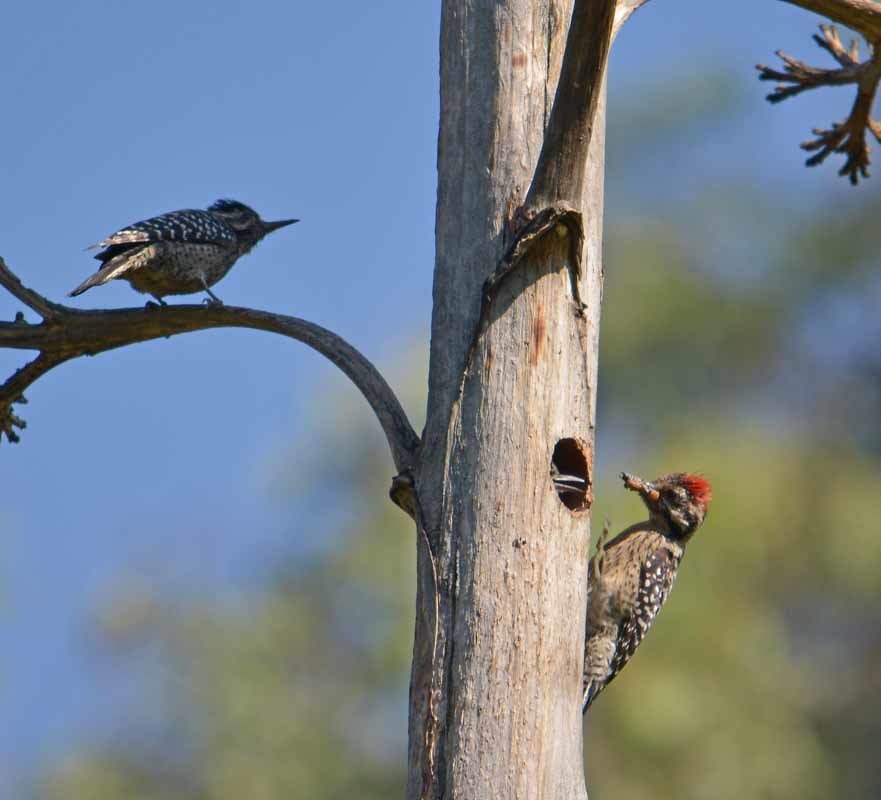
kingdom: Animalia
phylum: Chordata
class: Aves
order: Piciformes
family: Picidae
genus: Dryobates
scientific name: Dryobates scalaris
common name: Ladder-backed woodpecker
